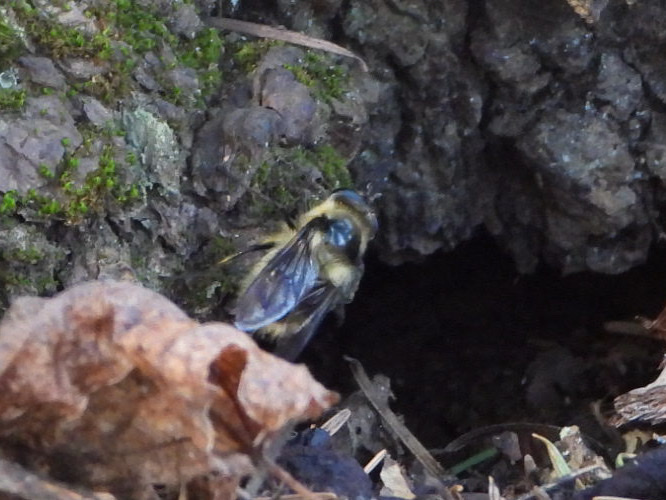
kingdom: Animalia
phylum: Arthropoda
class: Insecta
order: Diptera
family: Syrphidae
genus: Criorhina
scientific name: Criorhina nigripes
